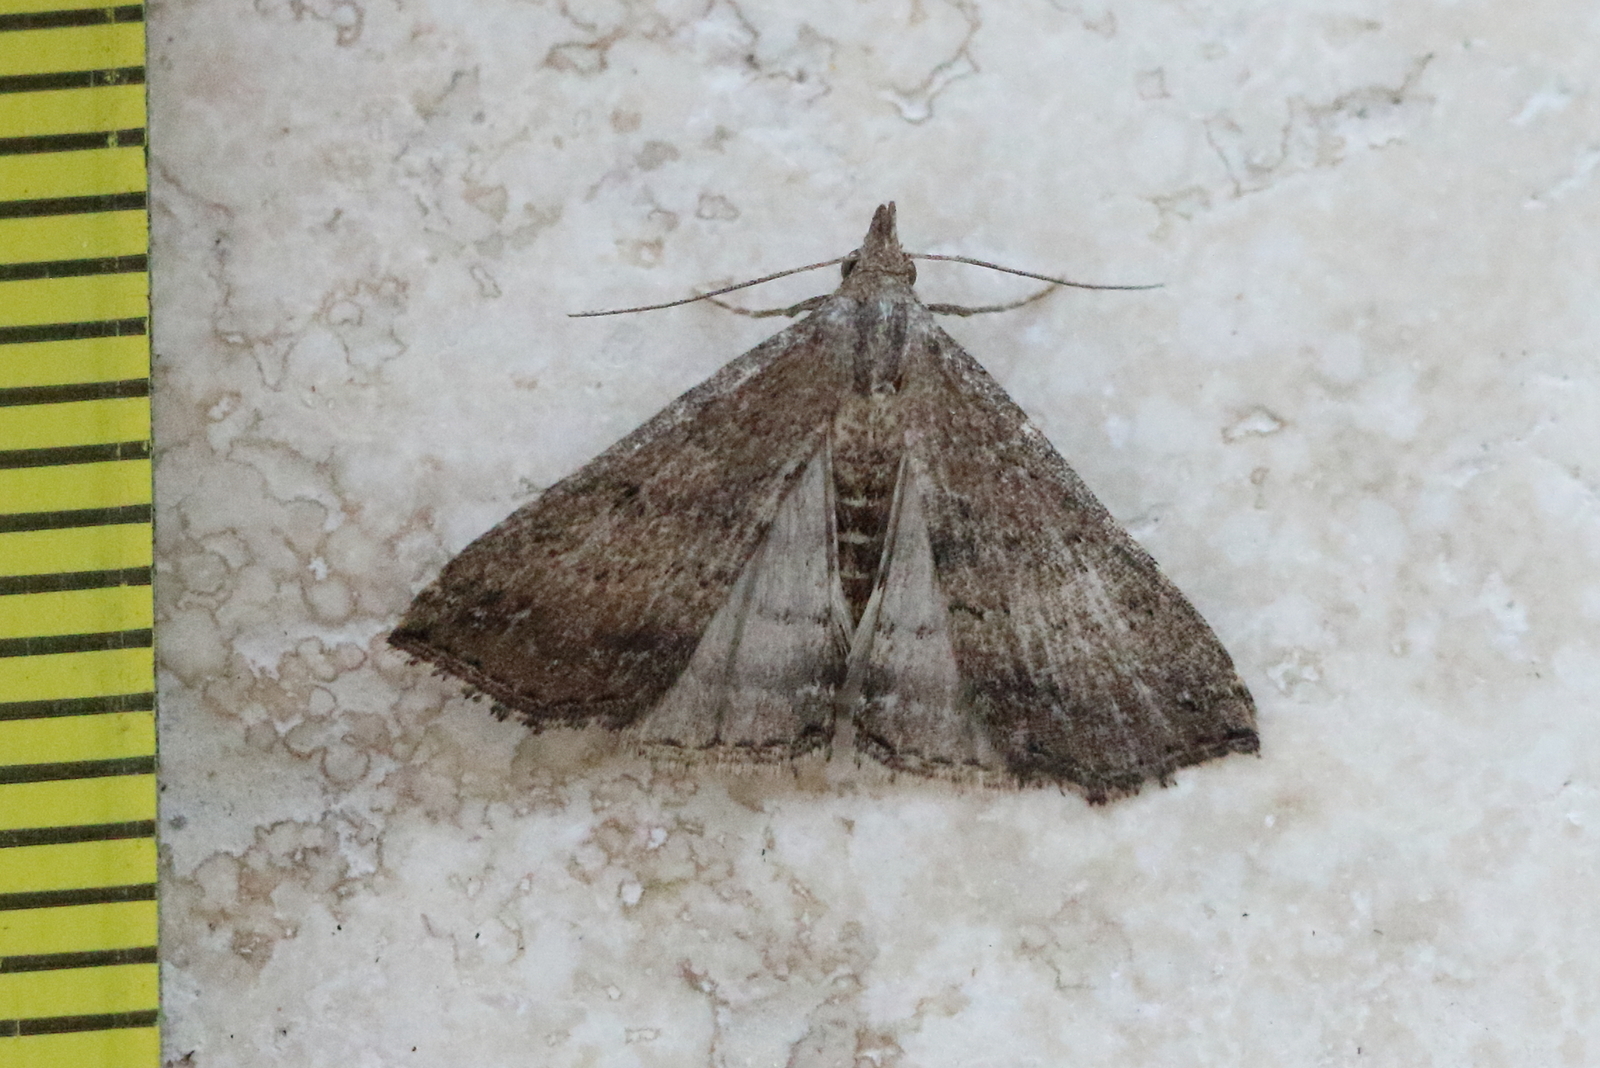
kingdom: Animalia
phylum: Arthropoda
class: Insecta
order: Lepidoptera
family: Erebidae
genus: Hypena
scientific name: Hypena umbrifera
